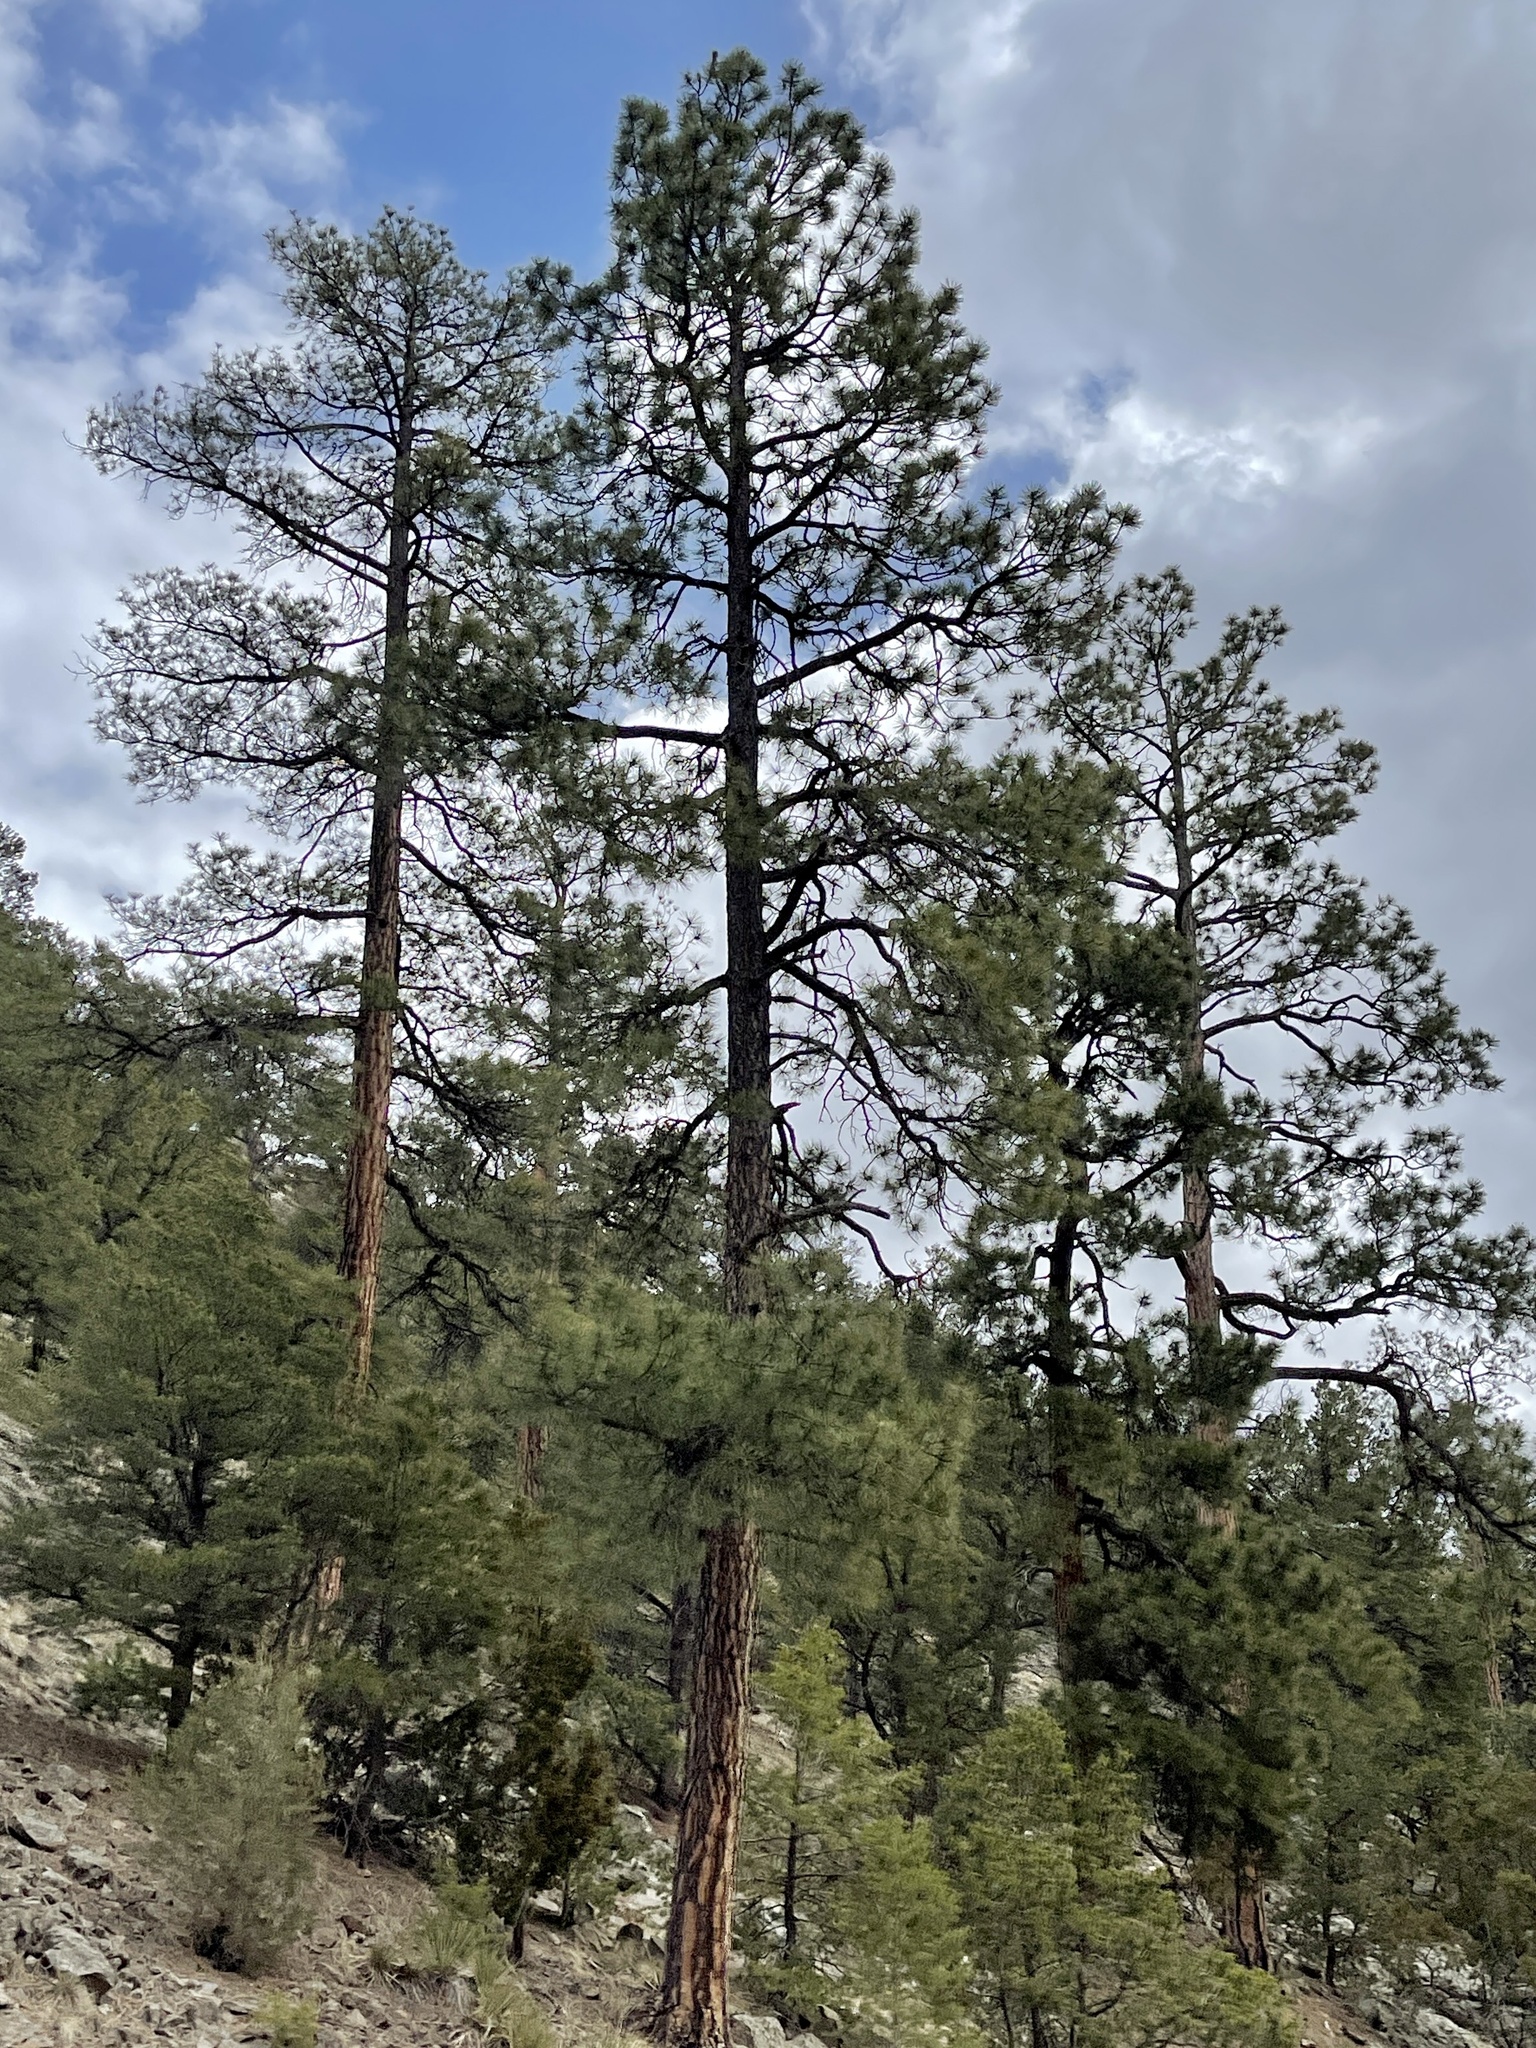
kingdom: Plantae
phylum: Tracheophyta
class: Pinopsida
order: Pinales
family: Pinaceae
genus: Pinus
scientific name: Pinus ponderosa
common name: Western yellow-pine
